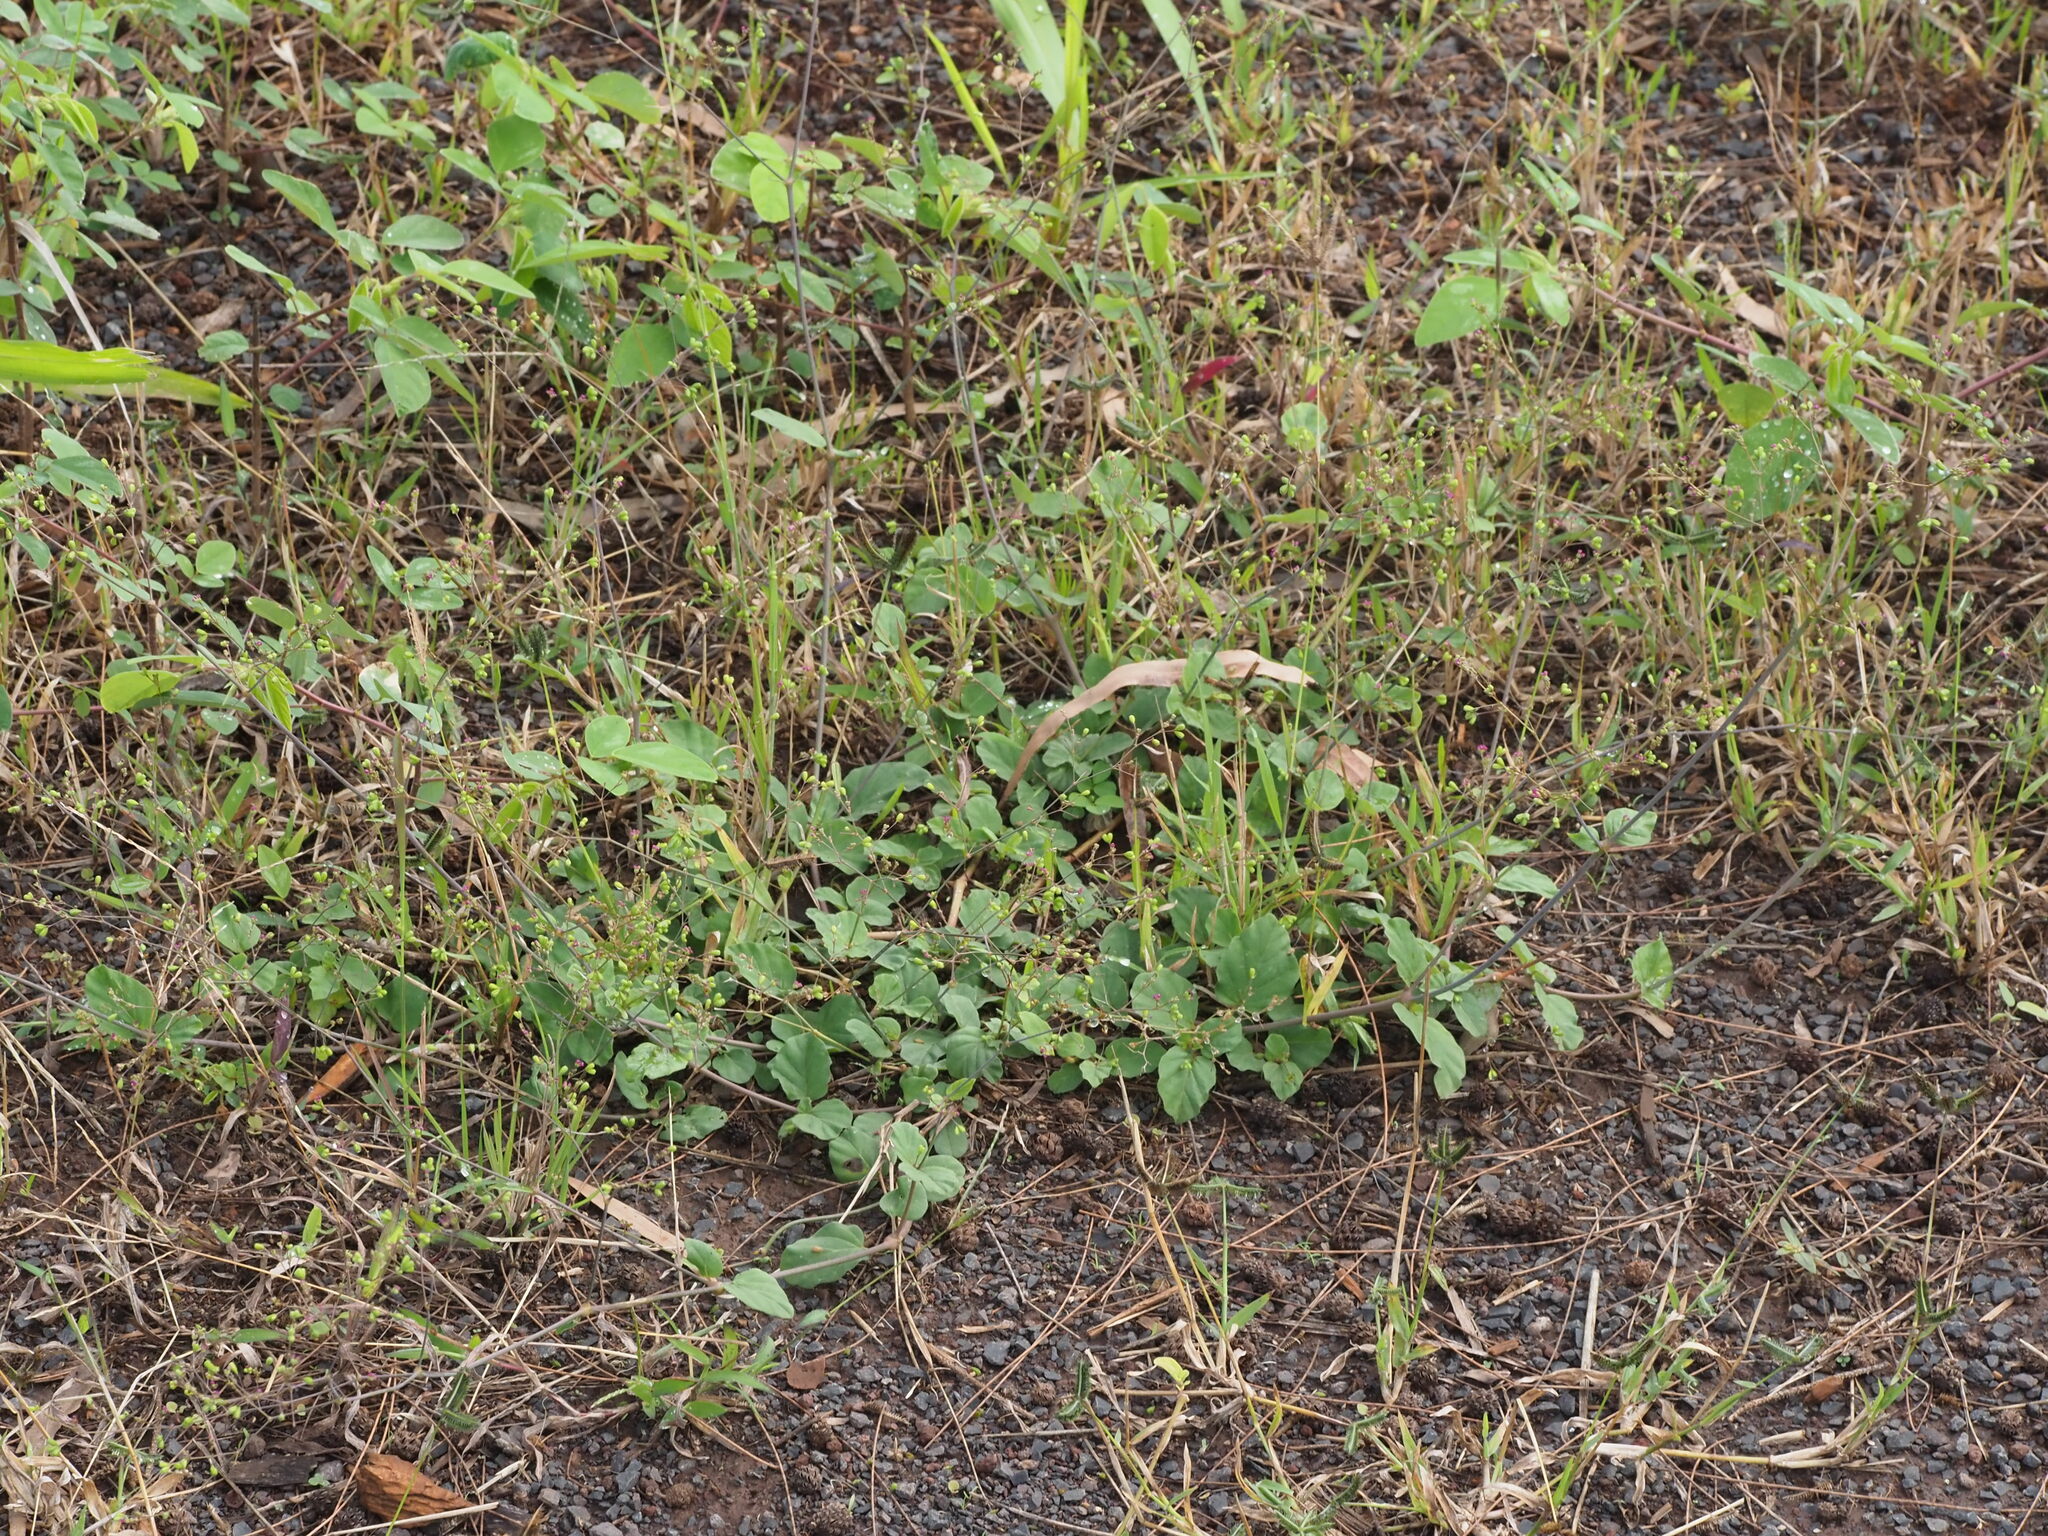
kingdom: Plantae
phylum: Tracheophyta
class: Magnoliopsida
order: Caryophyllales
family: Nyctaginaceae
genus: Boerhavia
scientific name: Boerhavia diffusa
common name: Red spiderling
